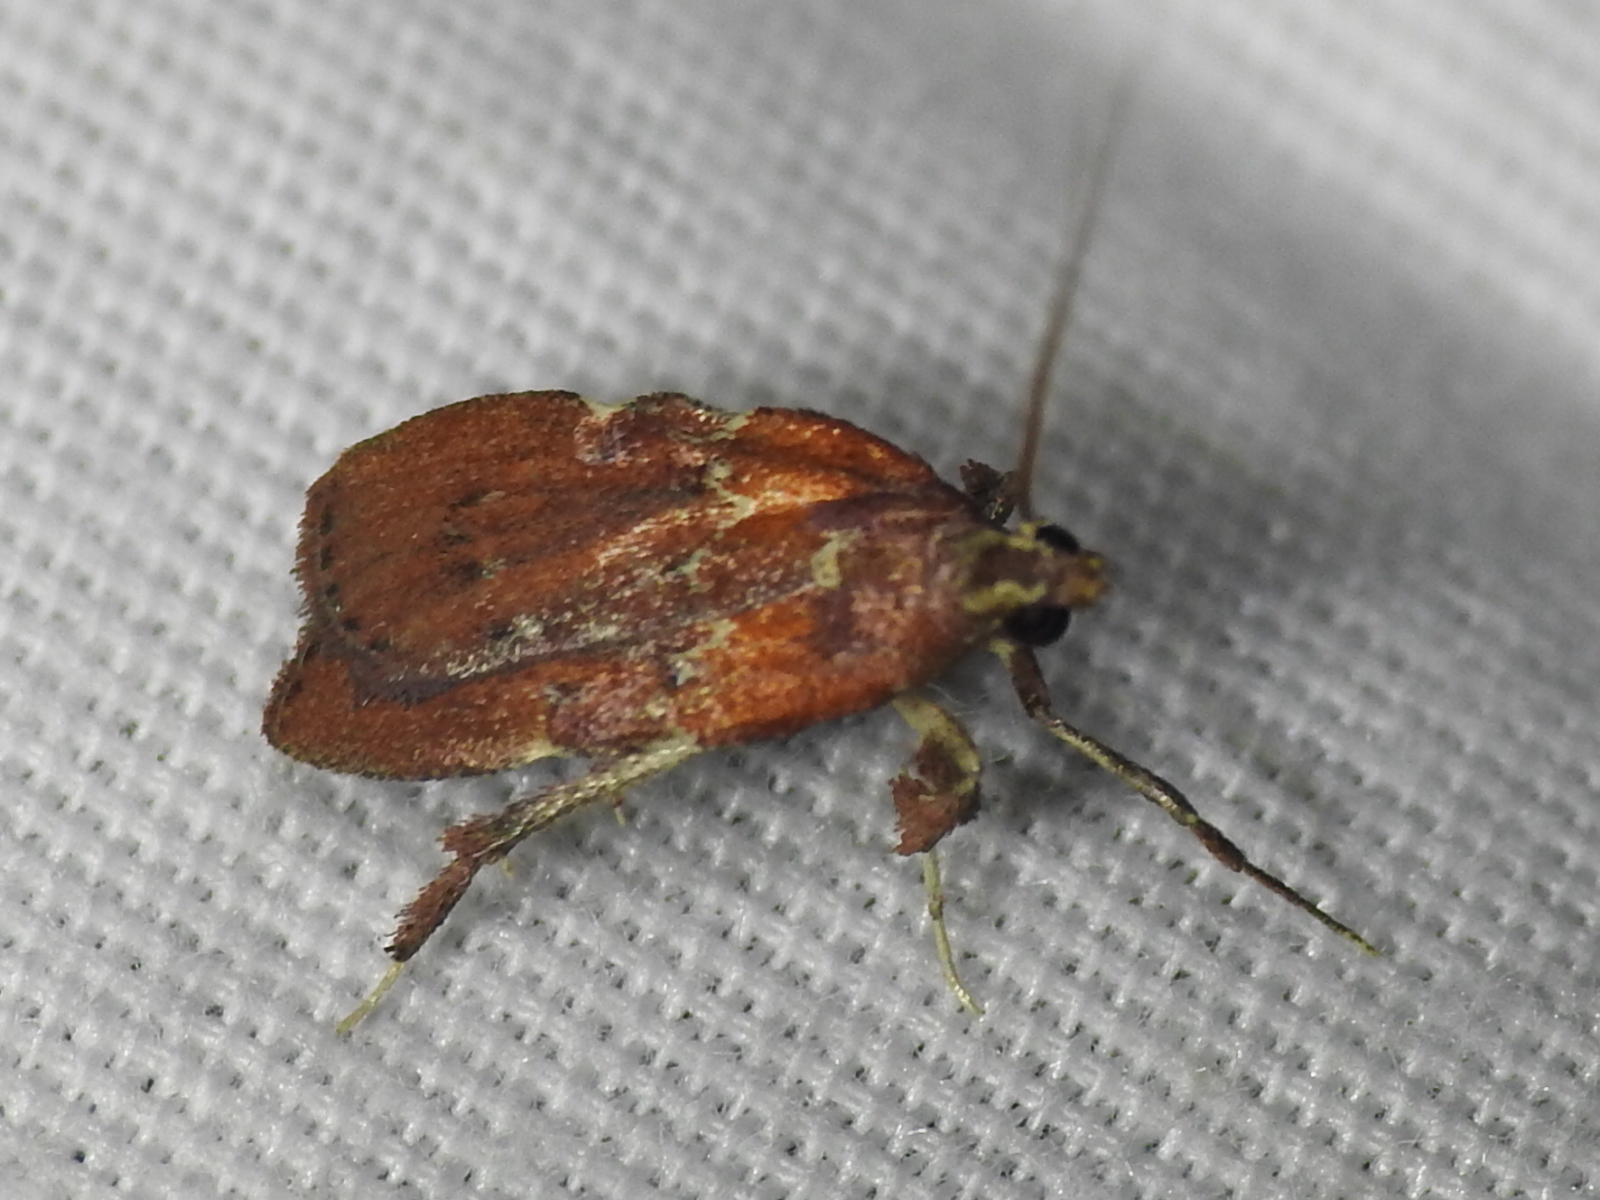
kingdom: Animalia
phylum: Arthropoda
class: Insecta
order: Lepidoptera
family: Pyralidae
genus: Galasa
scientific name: Galasa nigrinodis
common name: Boxwood leaftier moth
